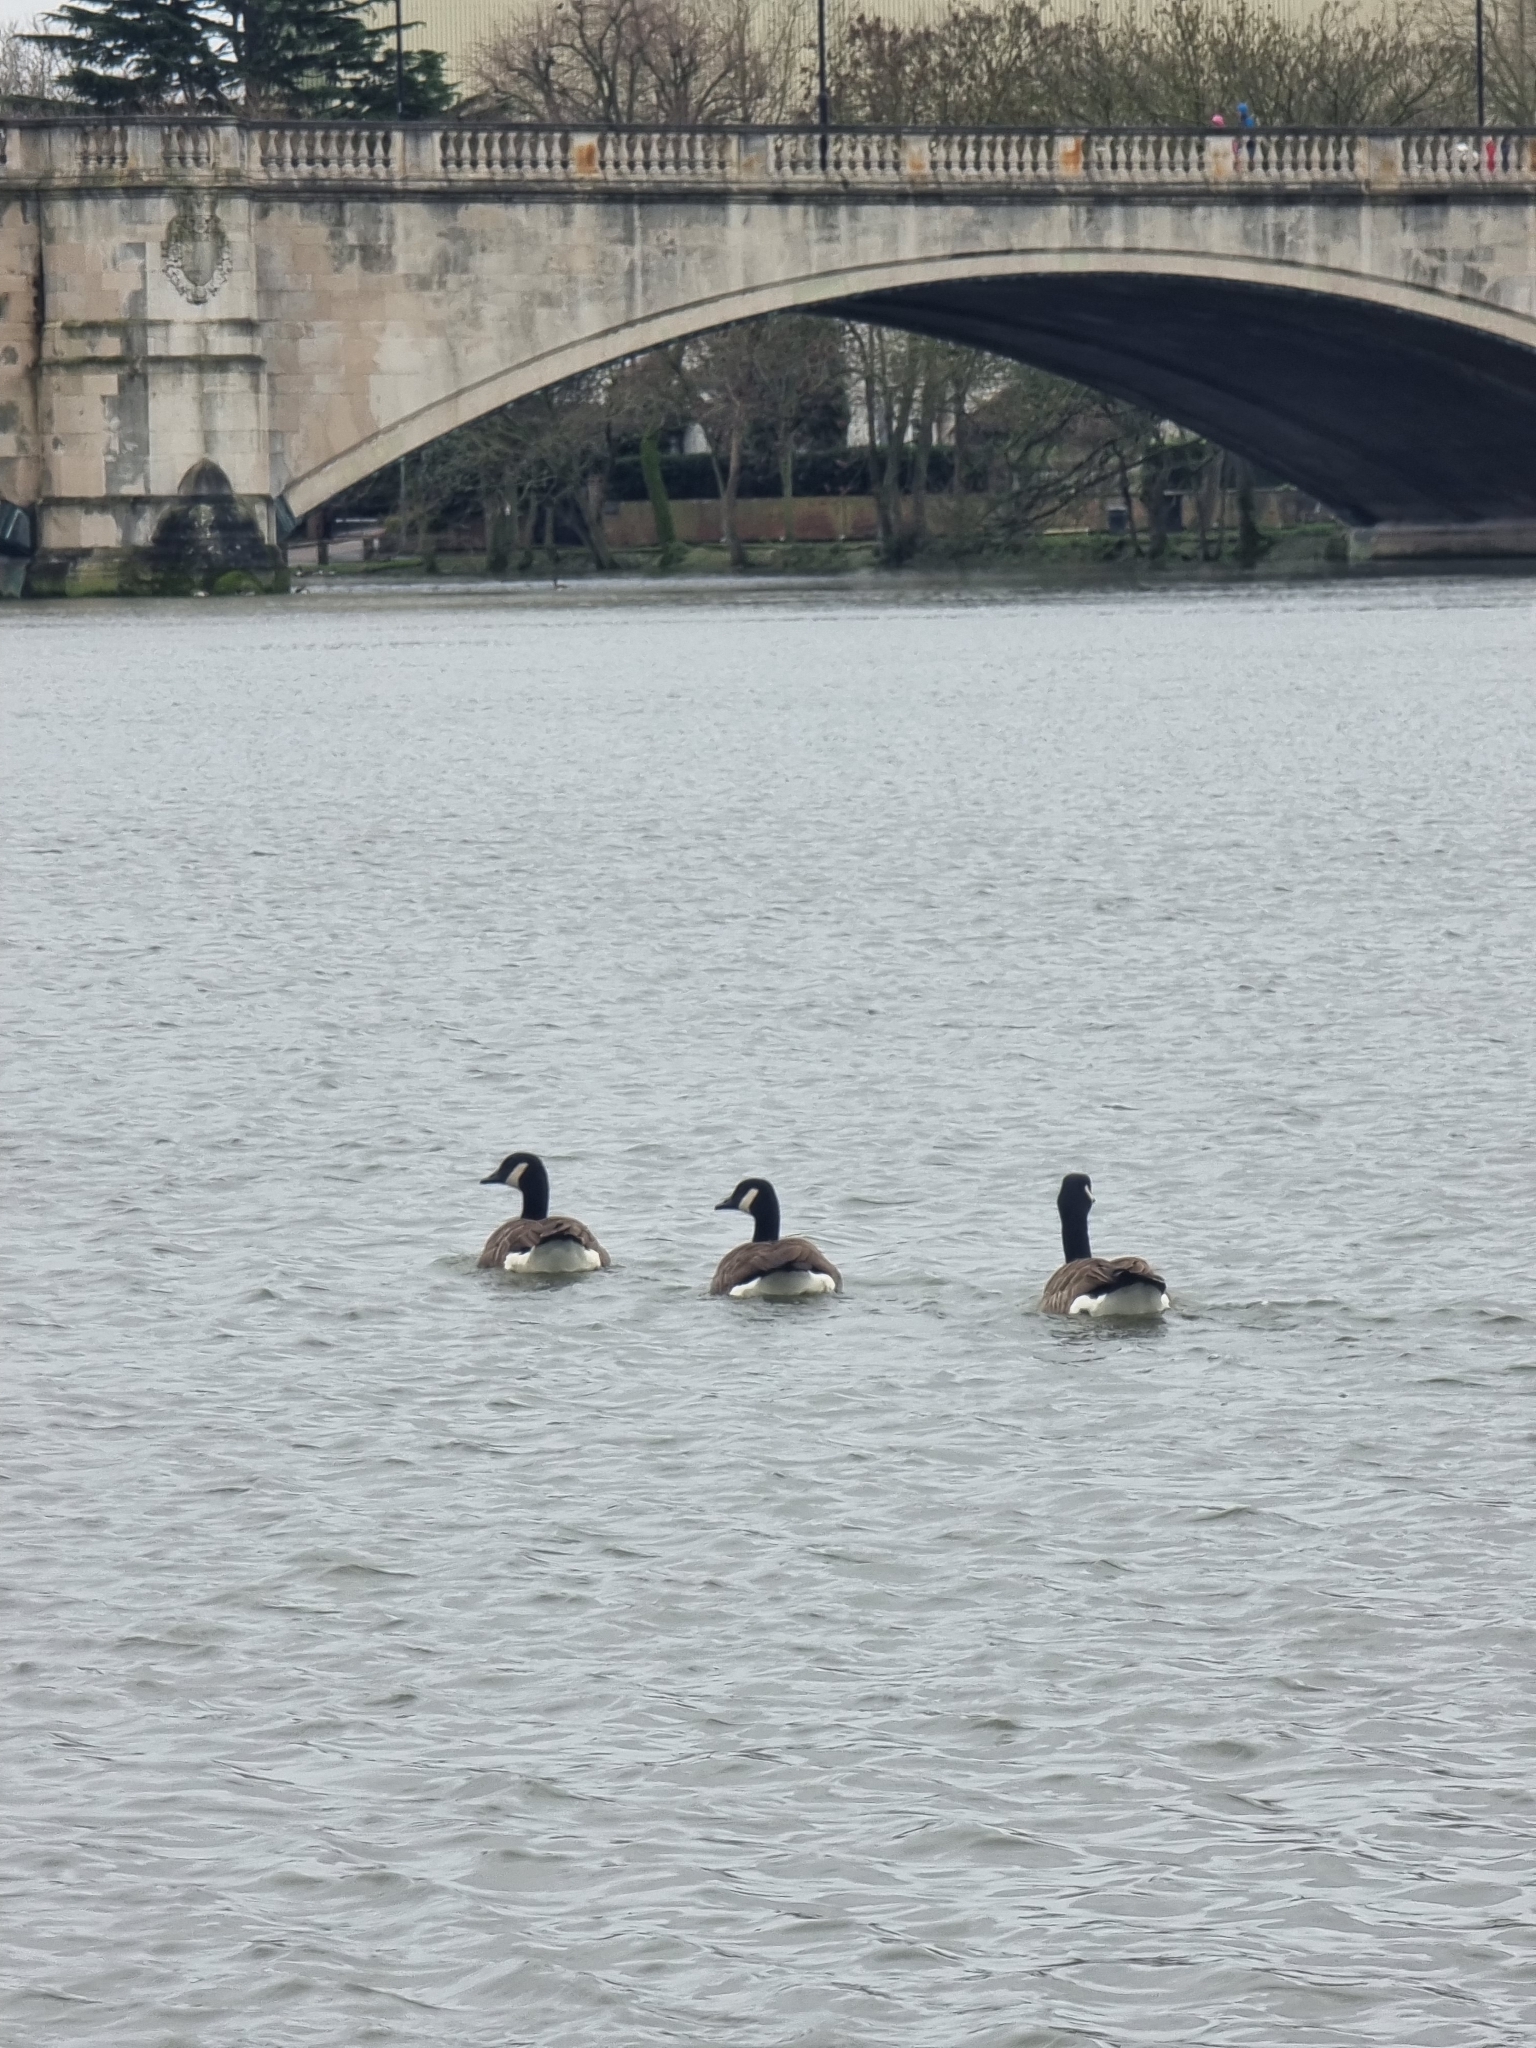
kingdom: Animalia
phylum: Chordata
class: Aves
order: Anseriformes
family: Anatidae
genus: Branta
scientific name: Branta canadensis
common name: Canada goose
